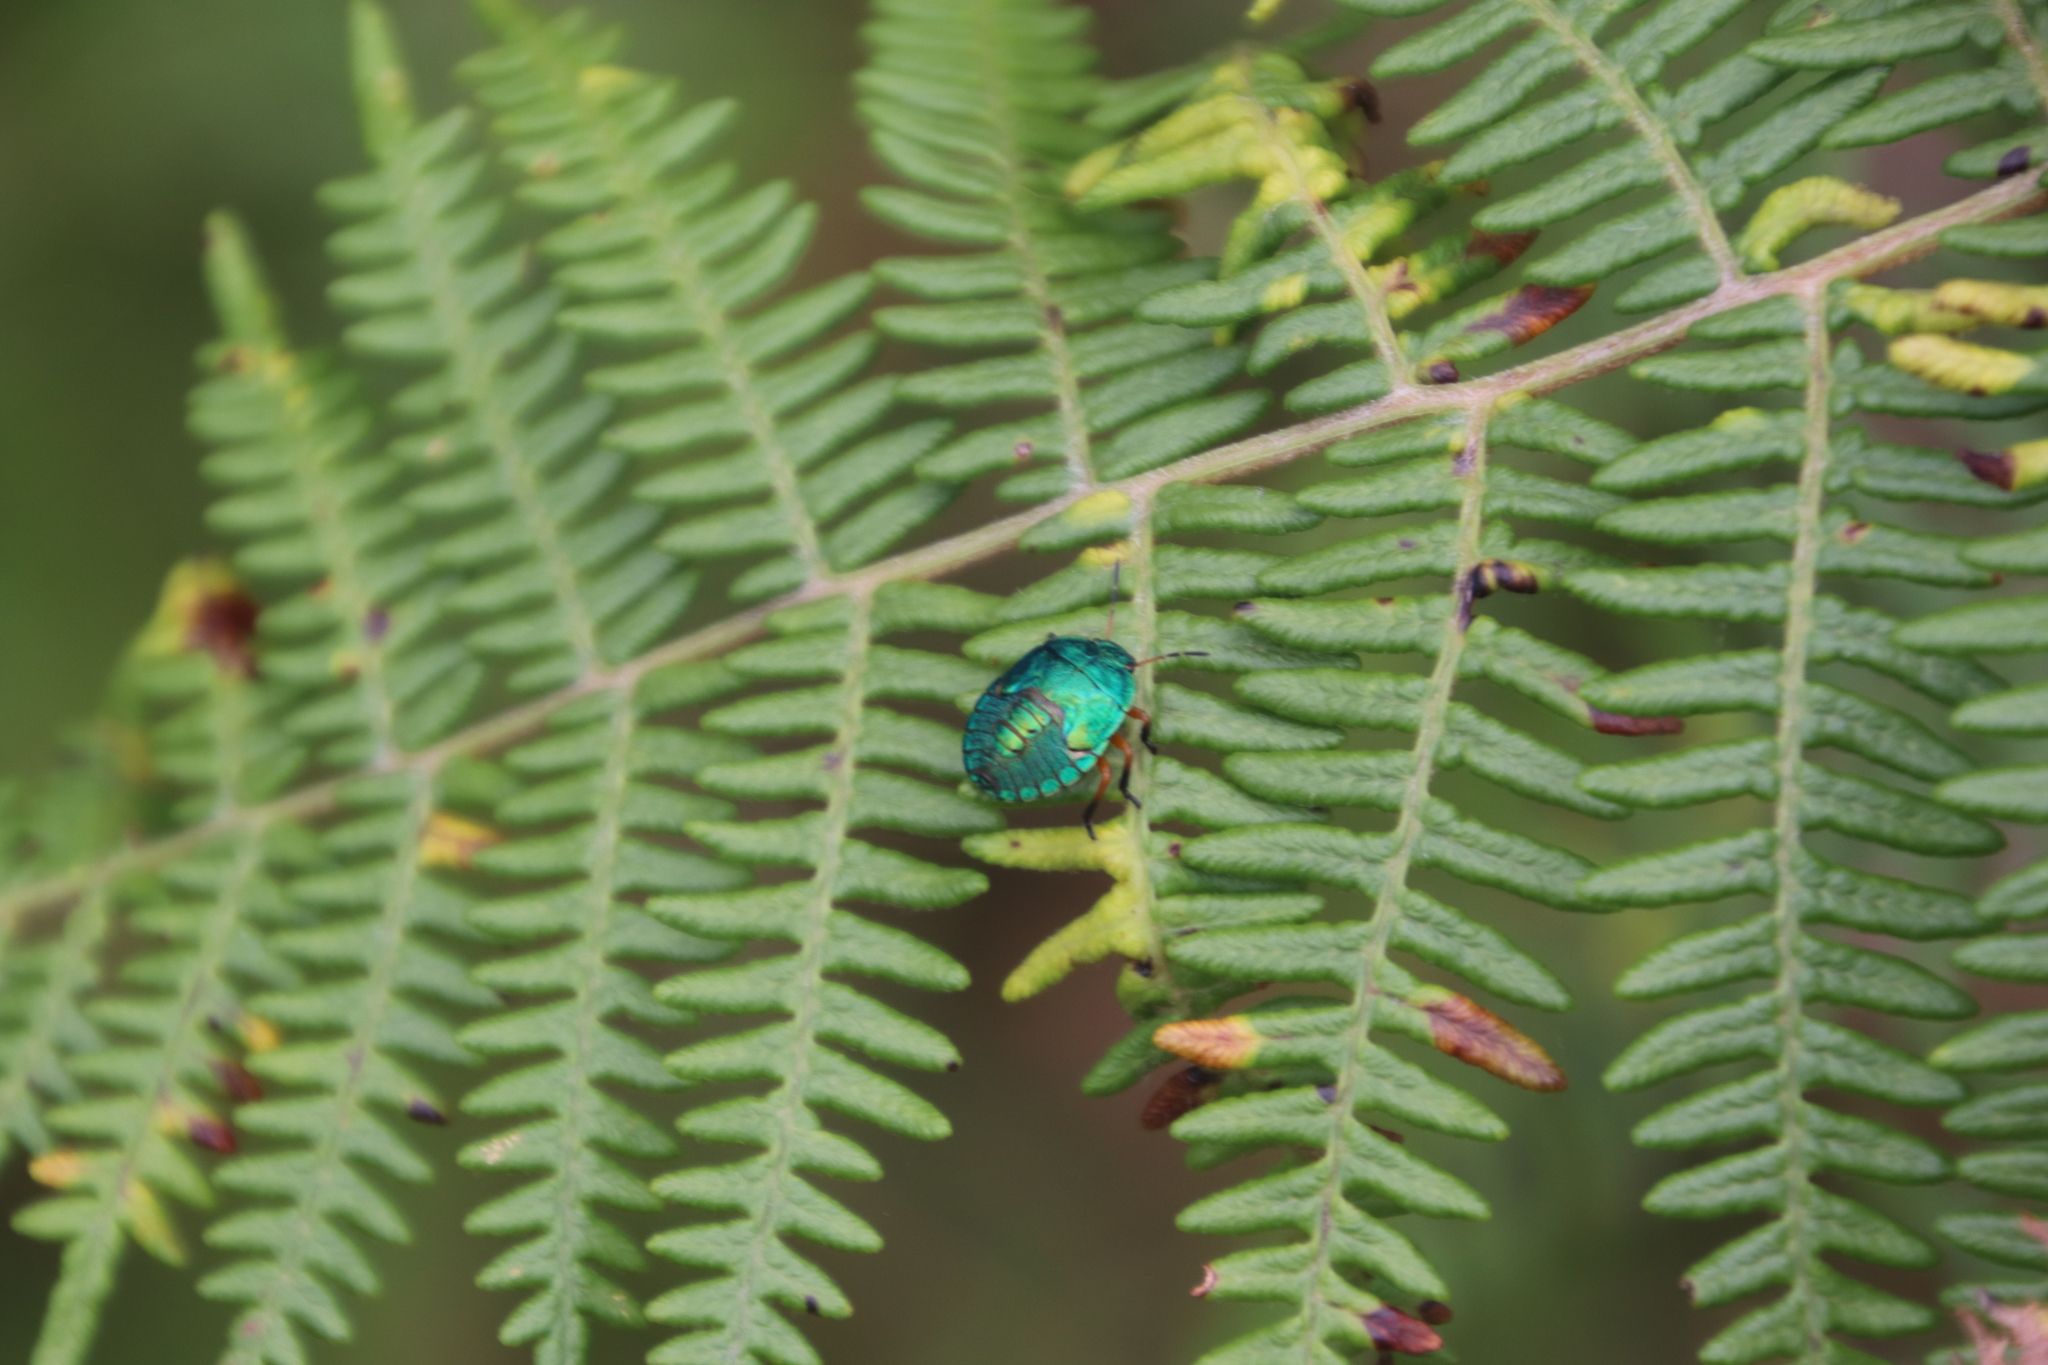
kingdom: Animalia
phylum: Arthropoda
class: Insecta
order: Hemiptera
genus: Erachtheus
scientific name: Erachtheus
